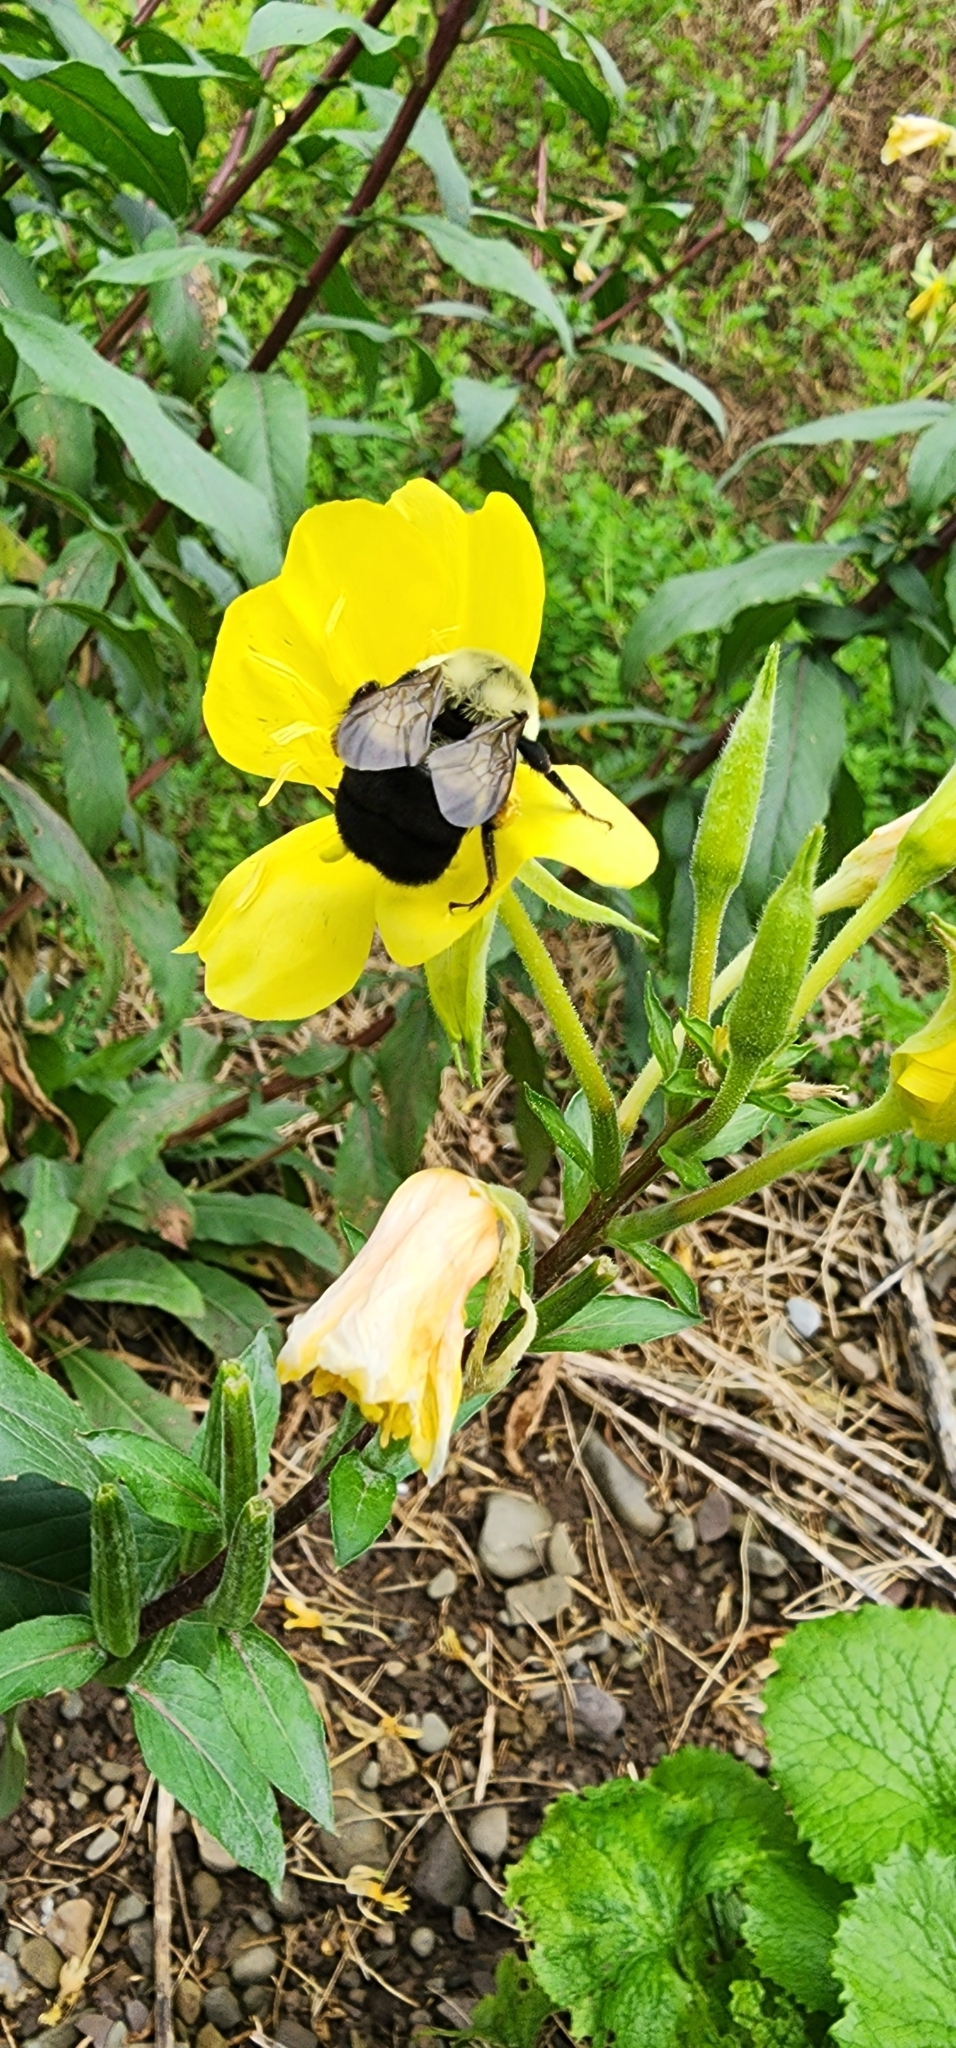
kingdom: Animalia
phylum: Arthropoda
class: Insecta
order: Hymenoptera
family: Apidae
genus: Bombus
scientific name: Bombus impatiens
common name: Common eastern bumble bee
